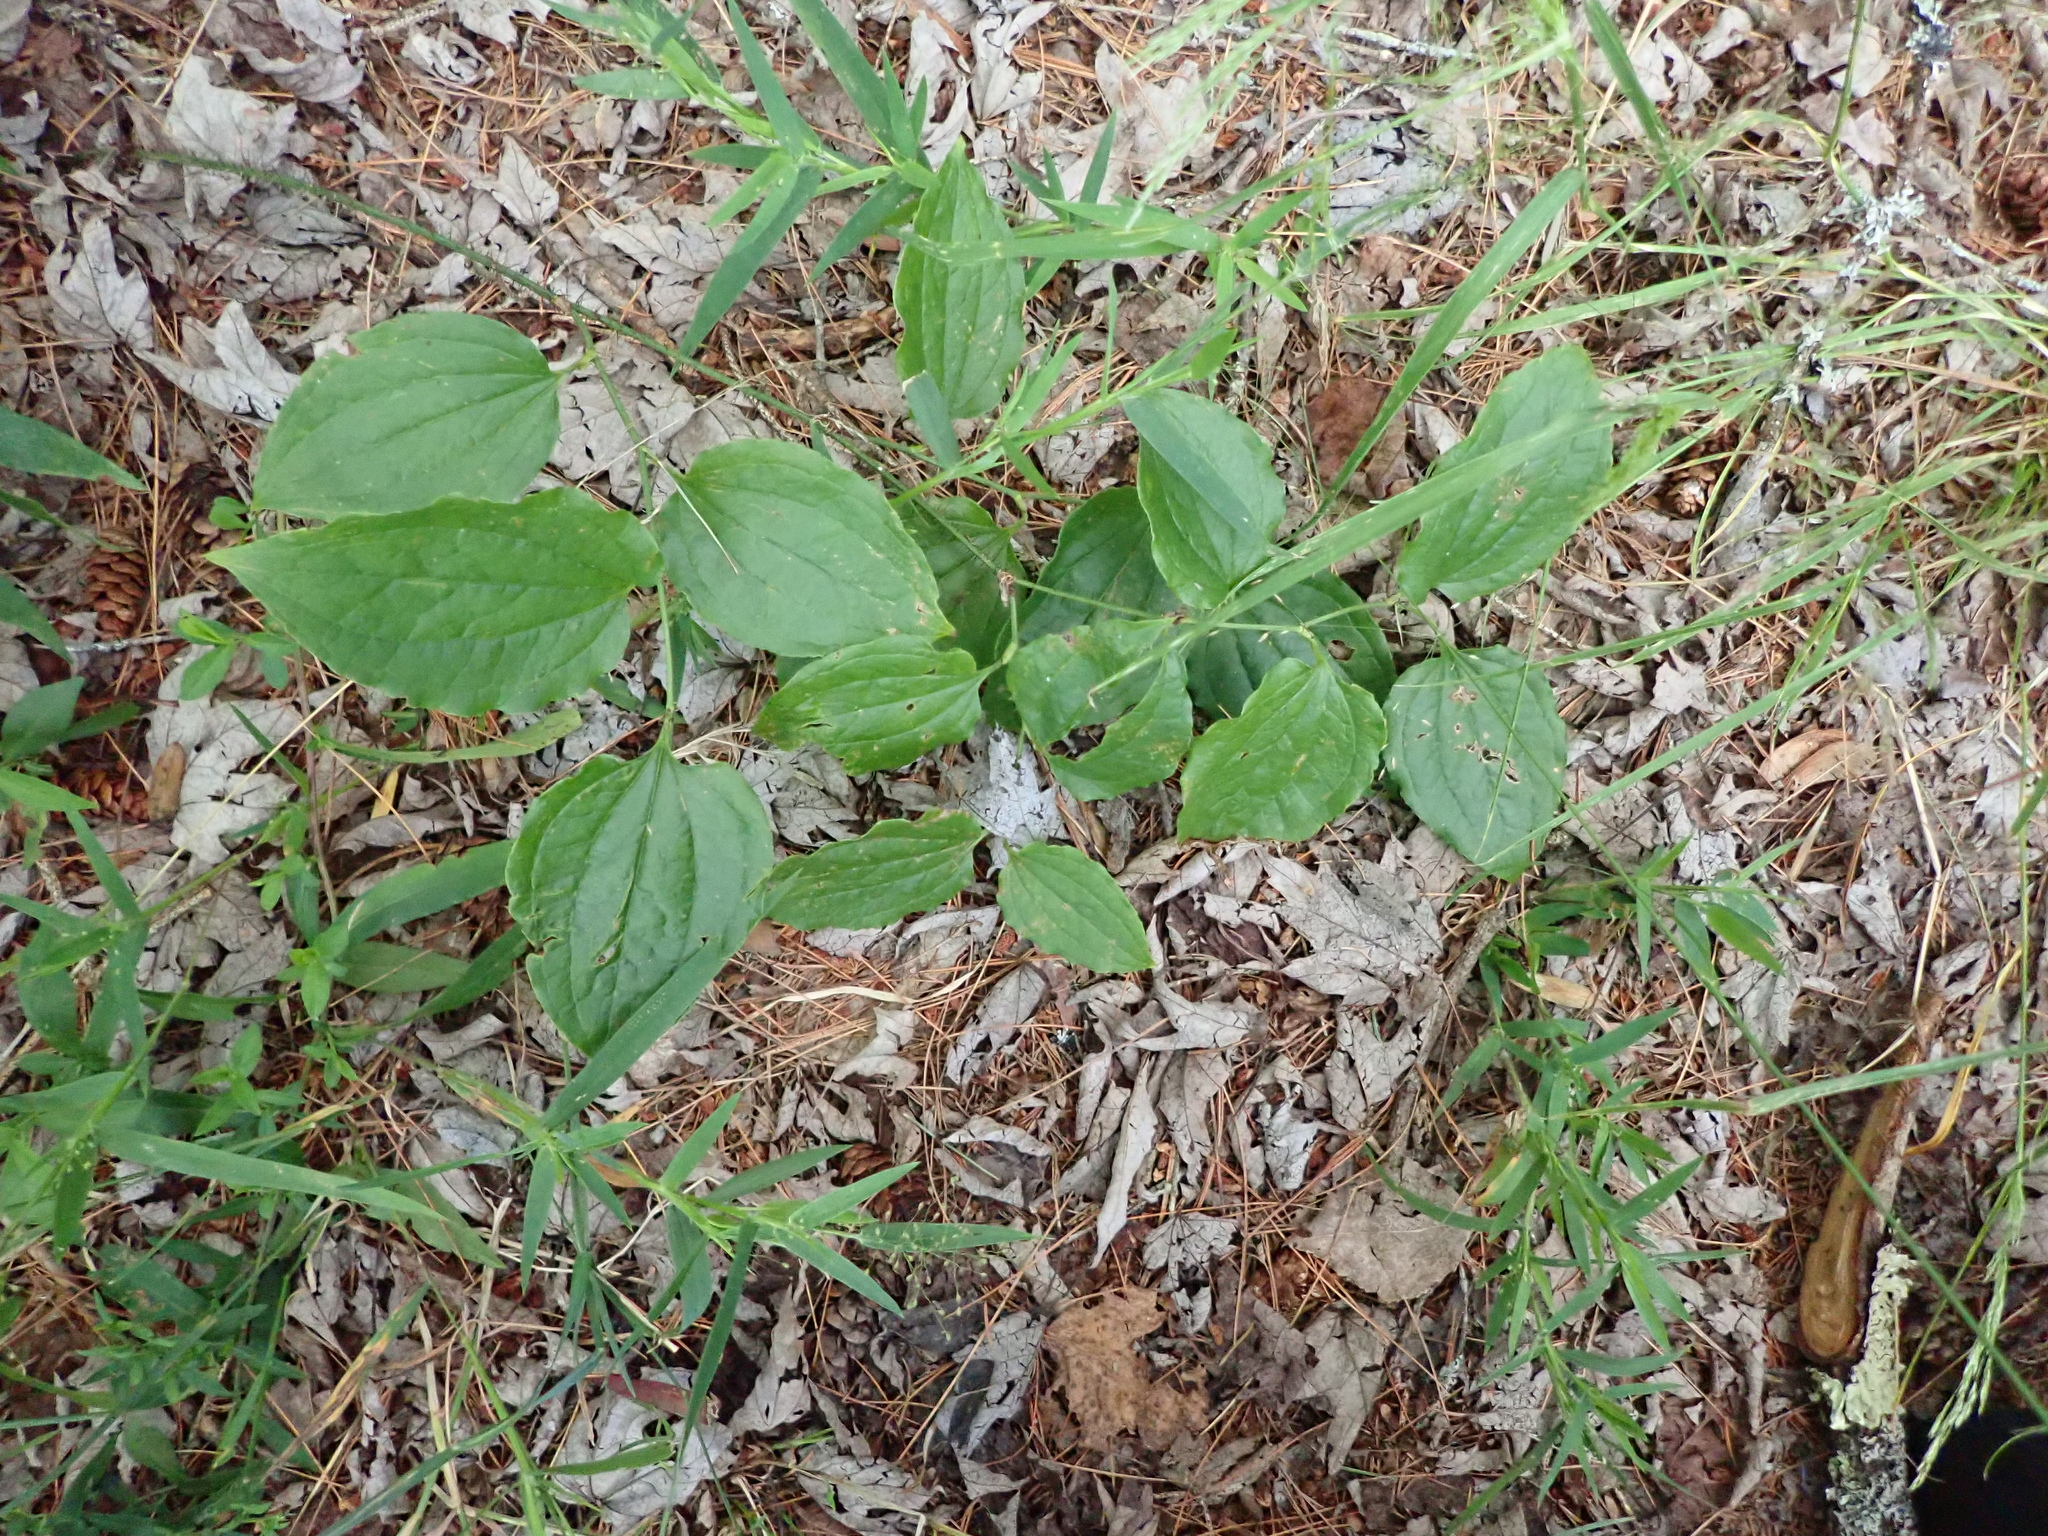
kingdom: Plantae
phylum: Tracheophyta
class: Liliopsida
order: Liliales
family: Smilacaceae
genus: Smilax
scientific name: Smilax tamnoides
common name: Hellfetter
